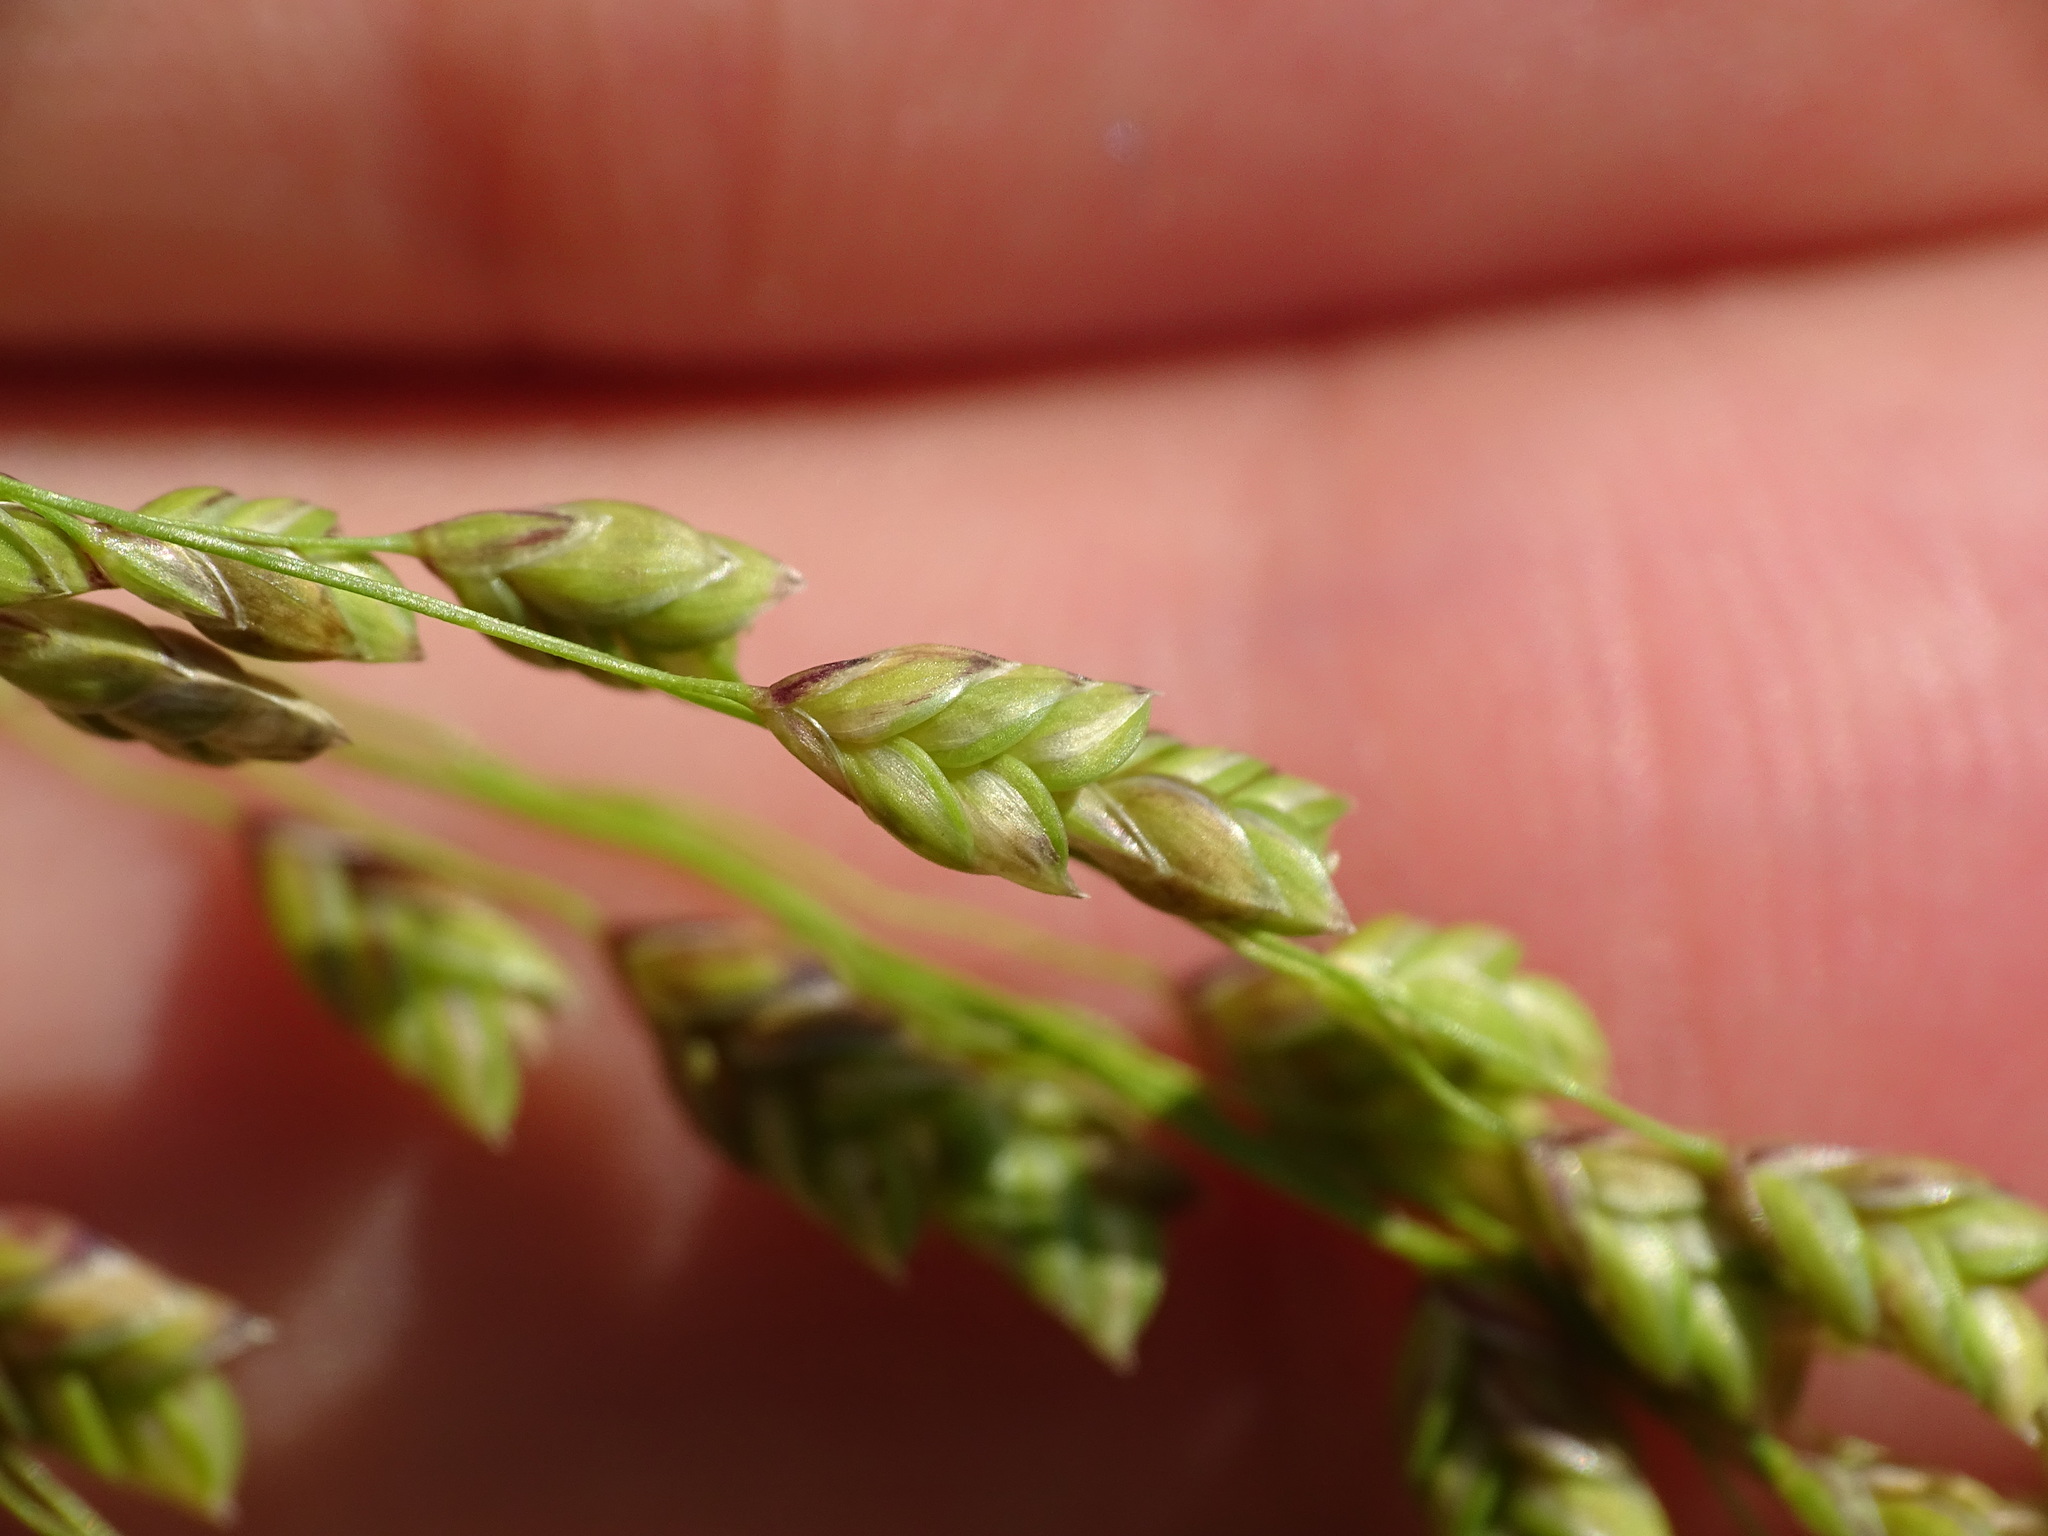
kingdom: Plantae
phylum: Tracheophyta
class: Liliopsida
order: Poales
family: Poaceae
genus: Glyceria
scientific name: Glyceria canadensis
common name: Canada mannagrass
